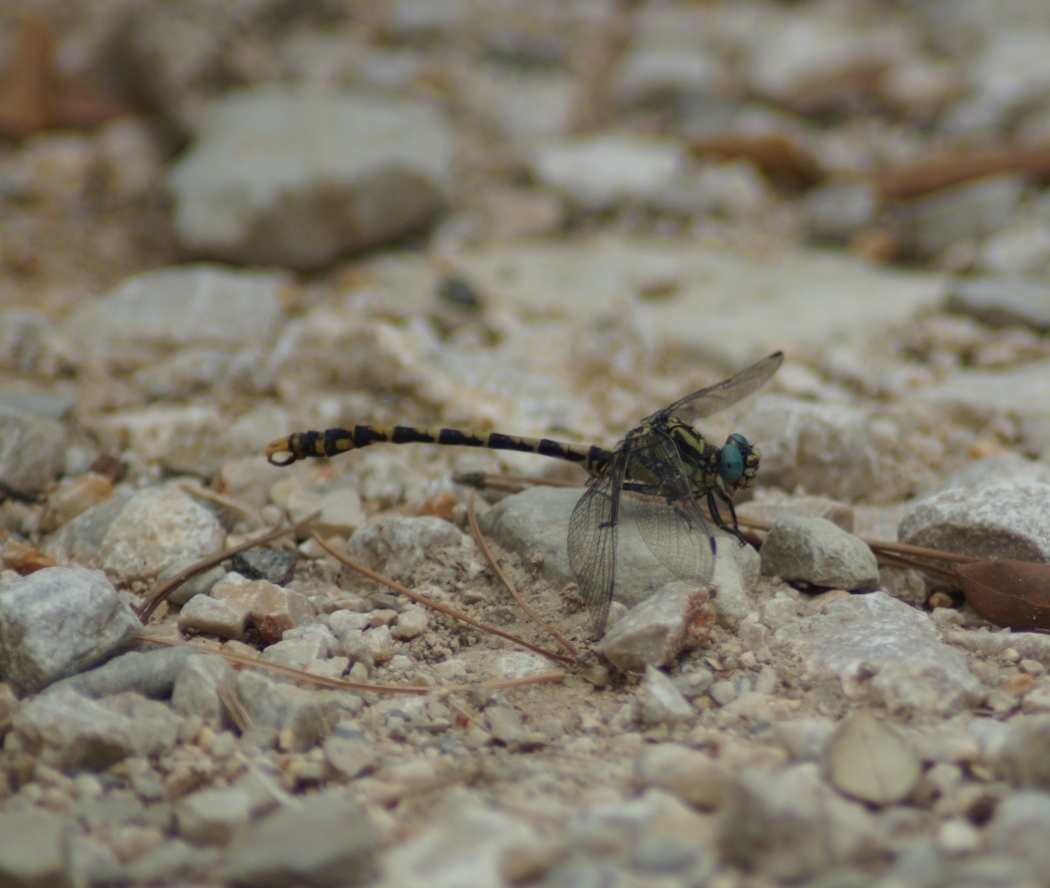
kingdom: Animalia
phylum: Arthropoda
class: Insecta
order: Odonata
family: Gomphidae
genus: Onychogomphus
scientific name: Onychogomphus uncatus
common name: Large pincertail
